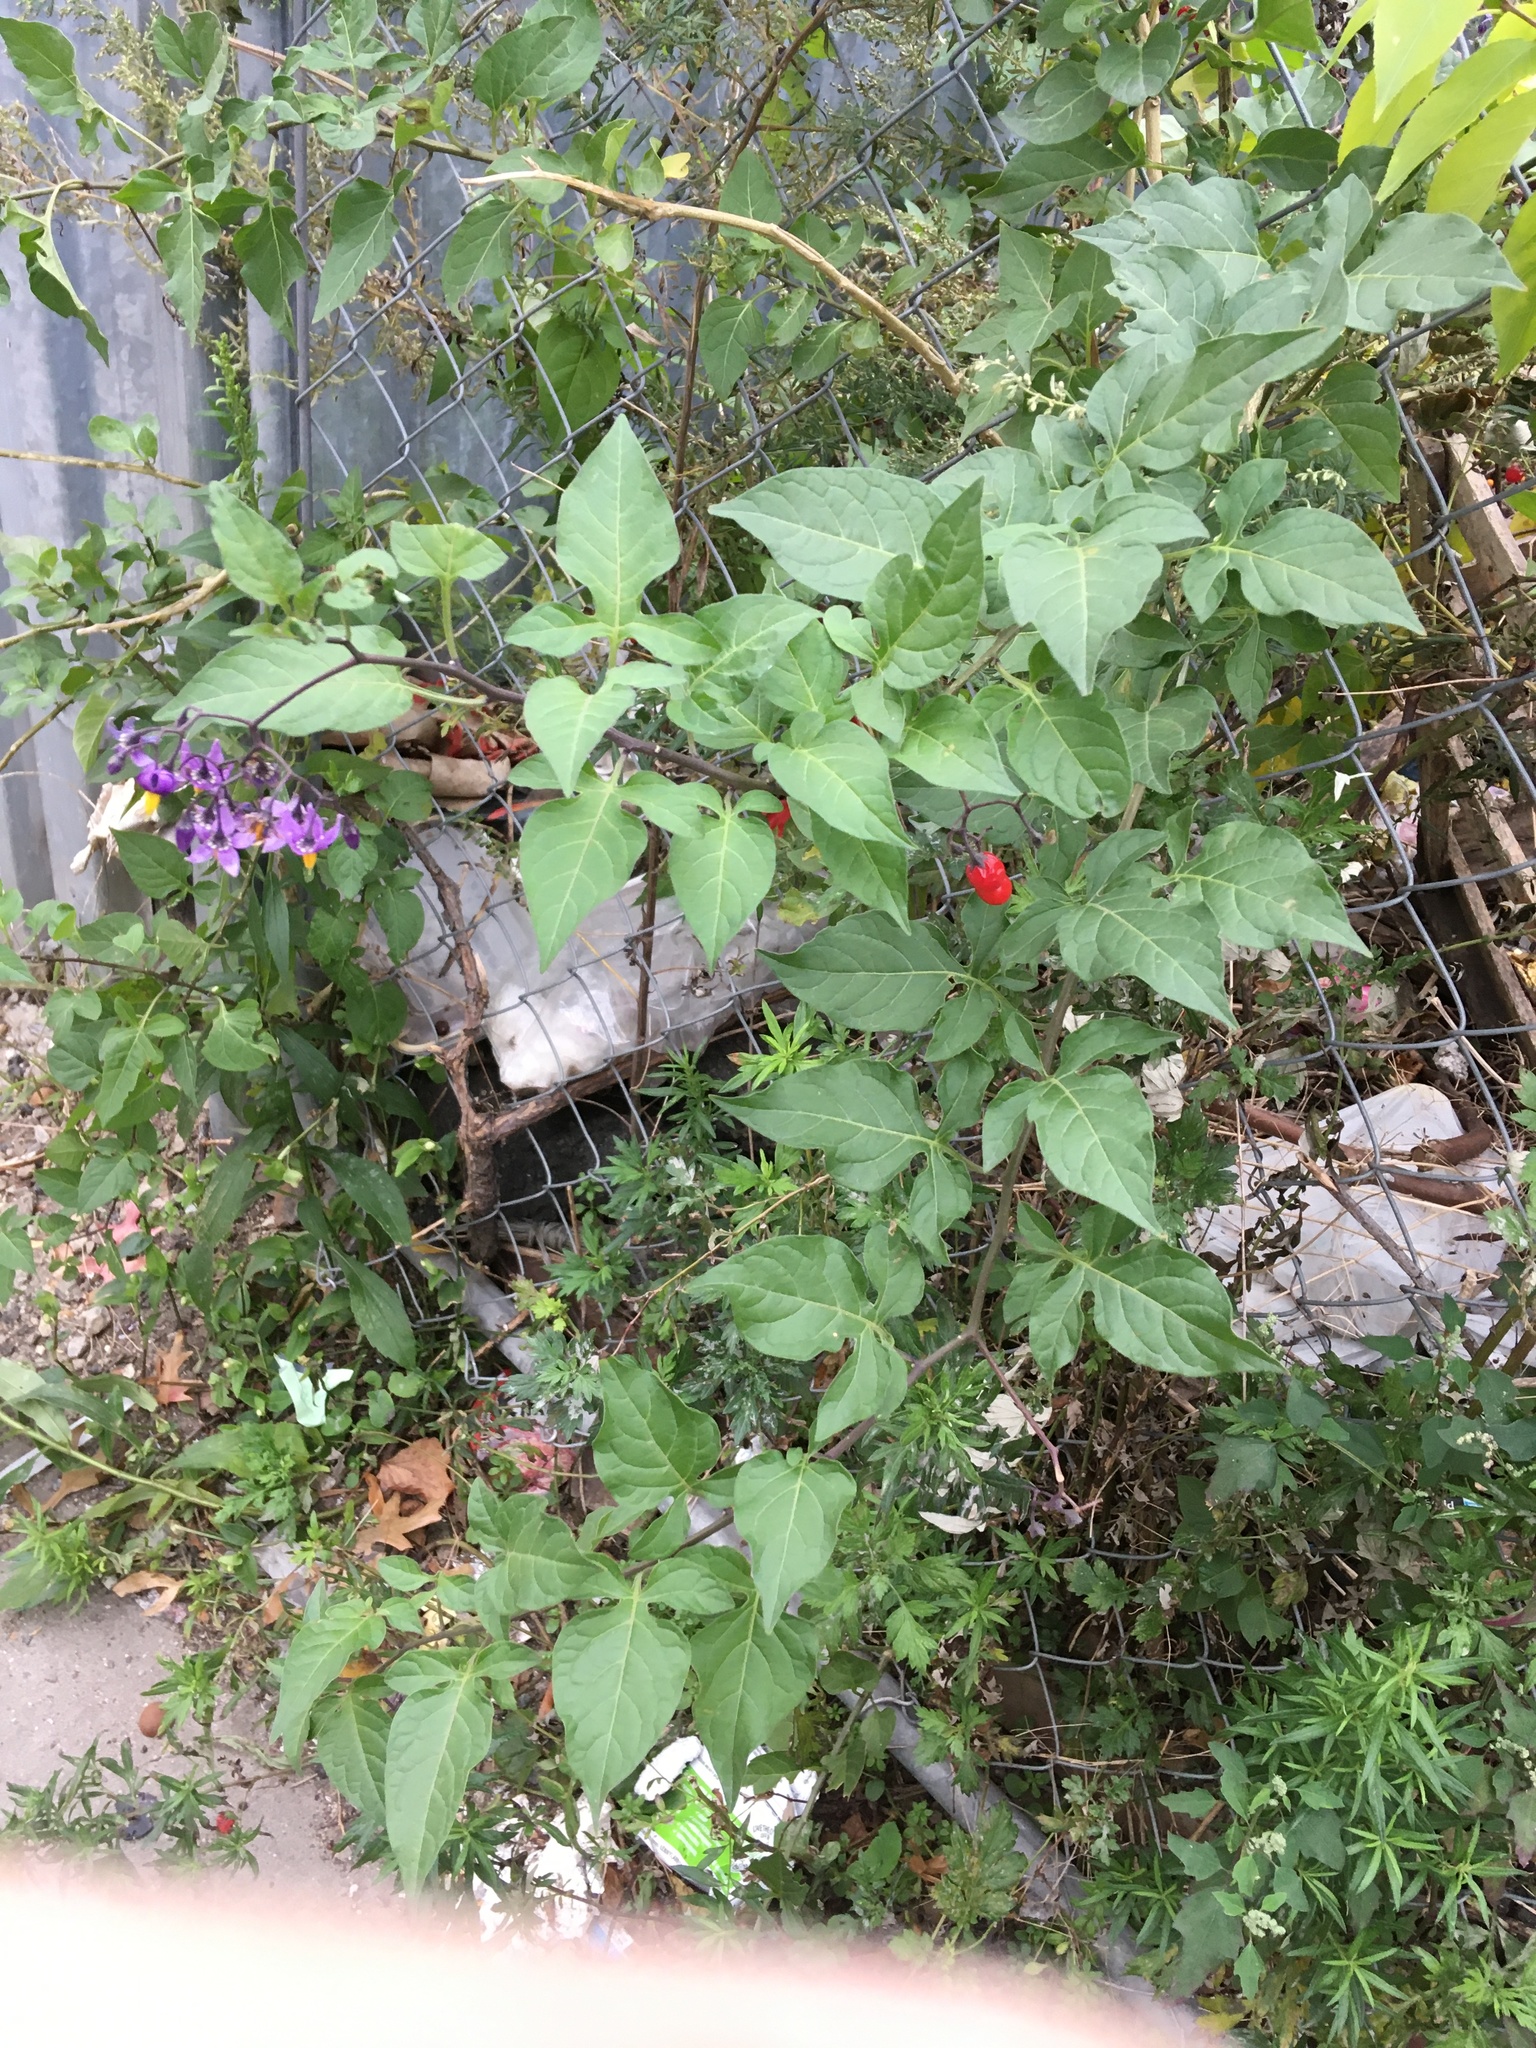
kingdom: Plantae
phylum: Tracheophyta
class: Magnoliopsida
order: Solanales
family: Solanaceae
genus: Solanum
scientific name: Solanum dulcamara
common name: Climbing nightshade
